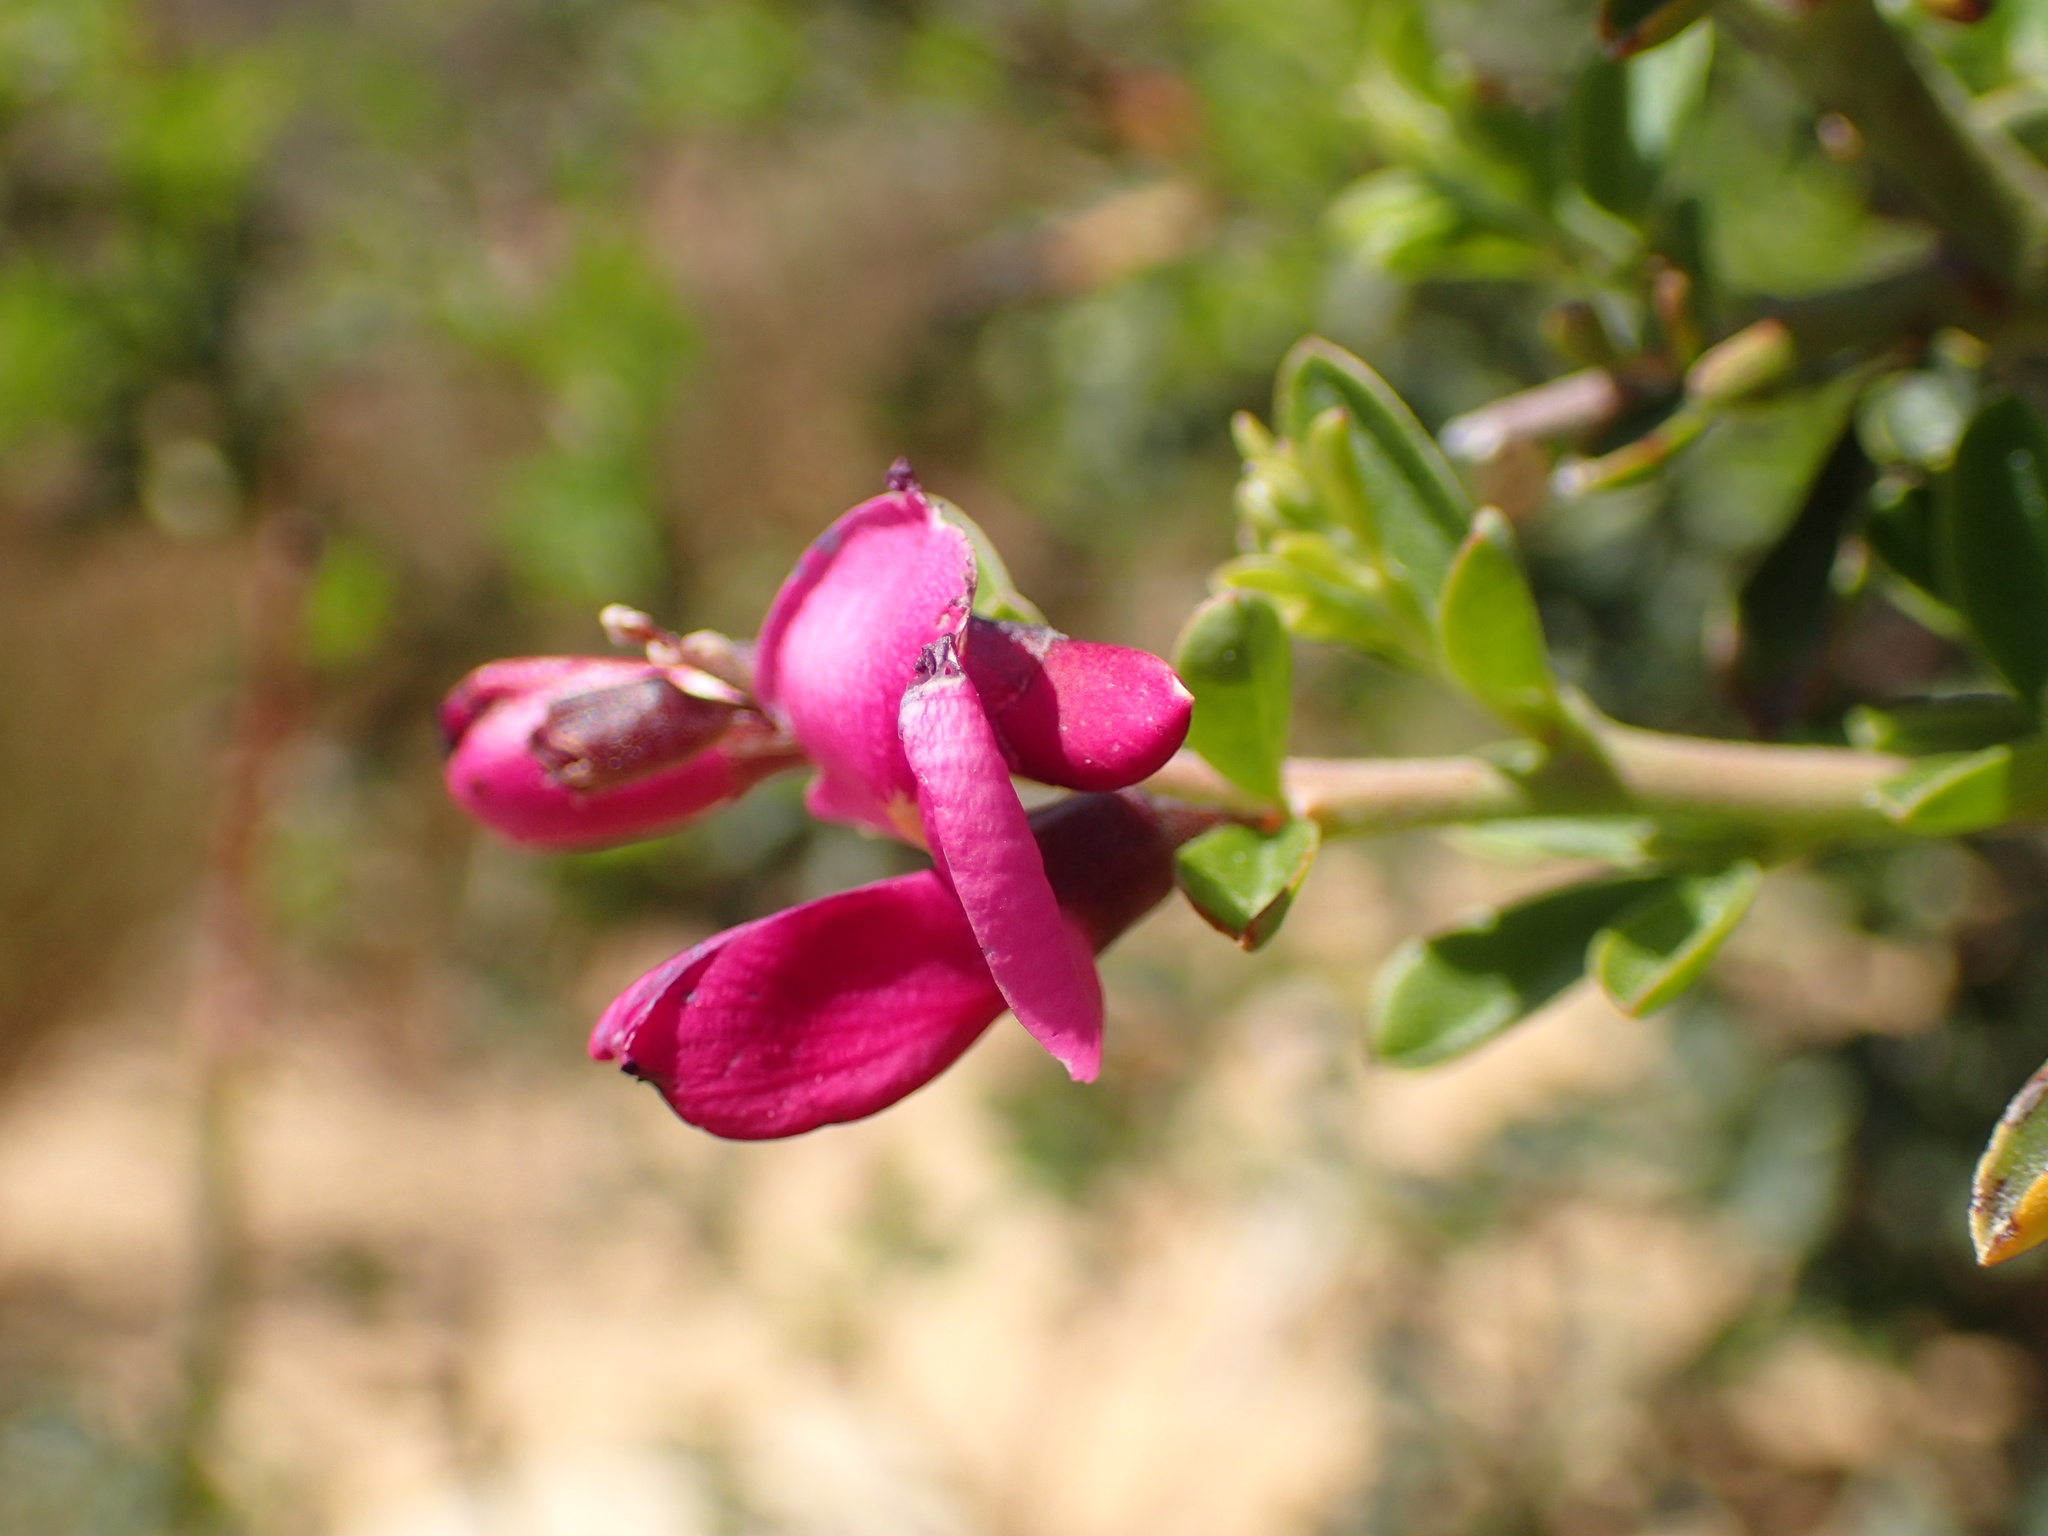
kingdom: Plantae
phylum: Tracheophyta
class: Magnoliopsida
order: Fabales
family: Fabaceae
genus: Pickeringia
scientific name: Pickeringia montana
